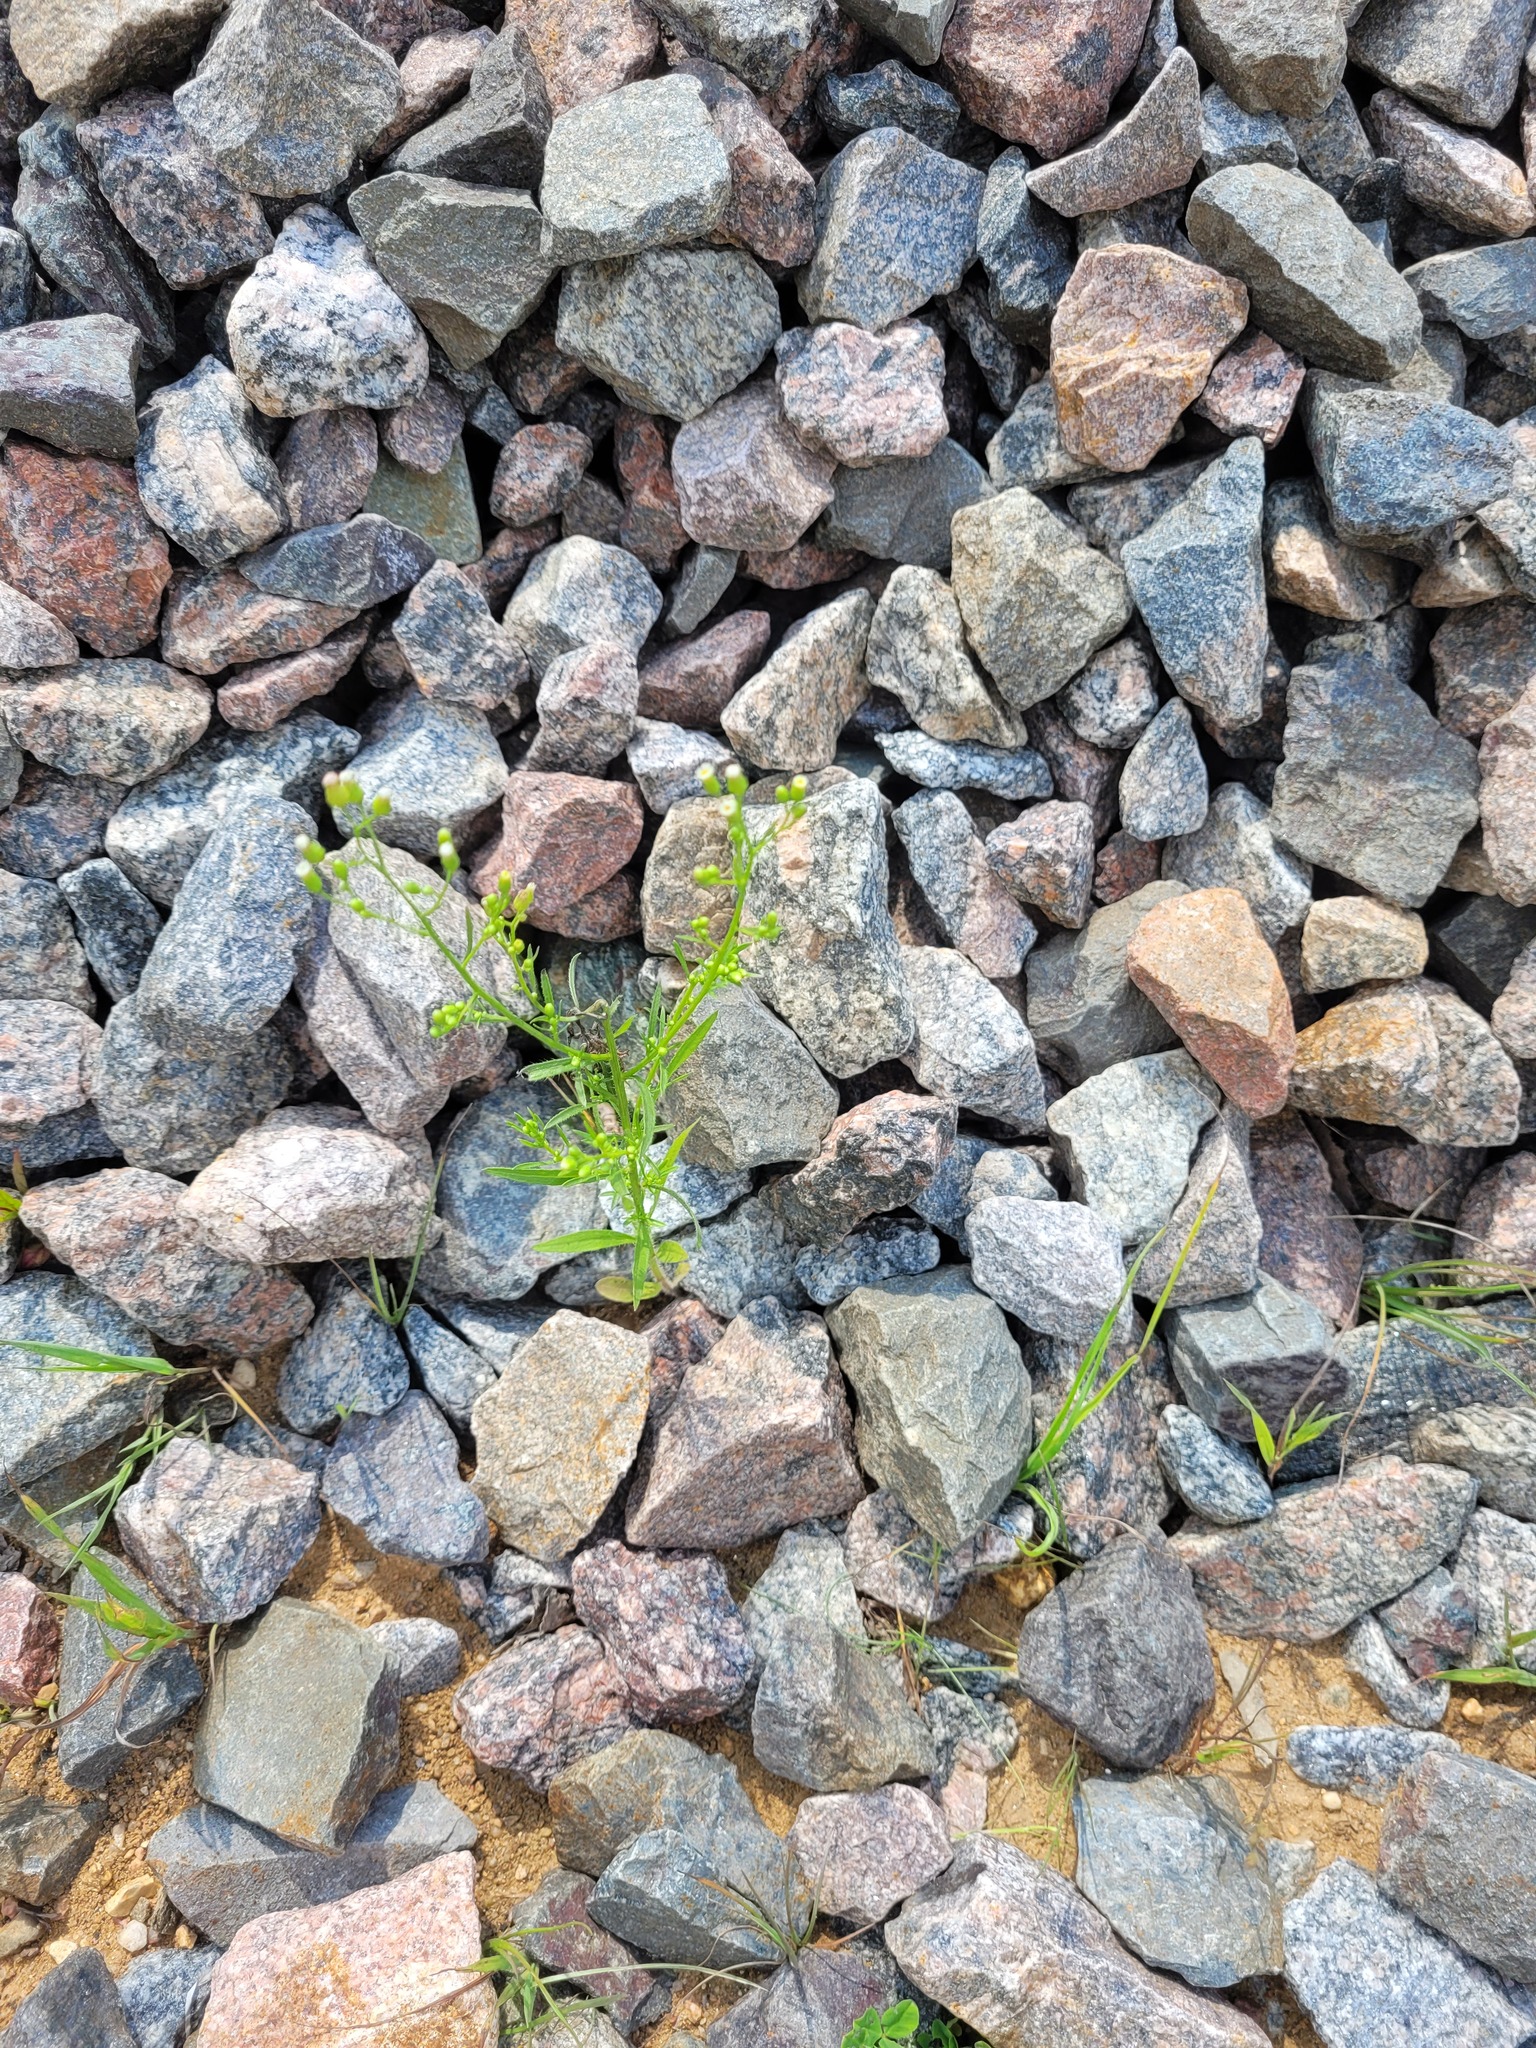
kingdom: Plantae
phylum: Tracheophyta
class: Magnoliopsida
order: Asterales
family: Asteraceae
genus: Erigeron
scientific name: Erigeron canadensis
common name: Canadian fleabane
